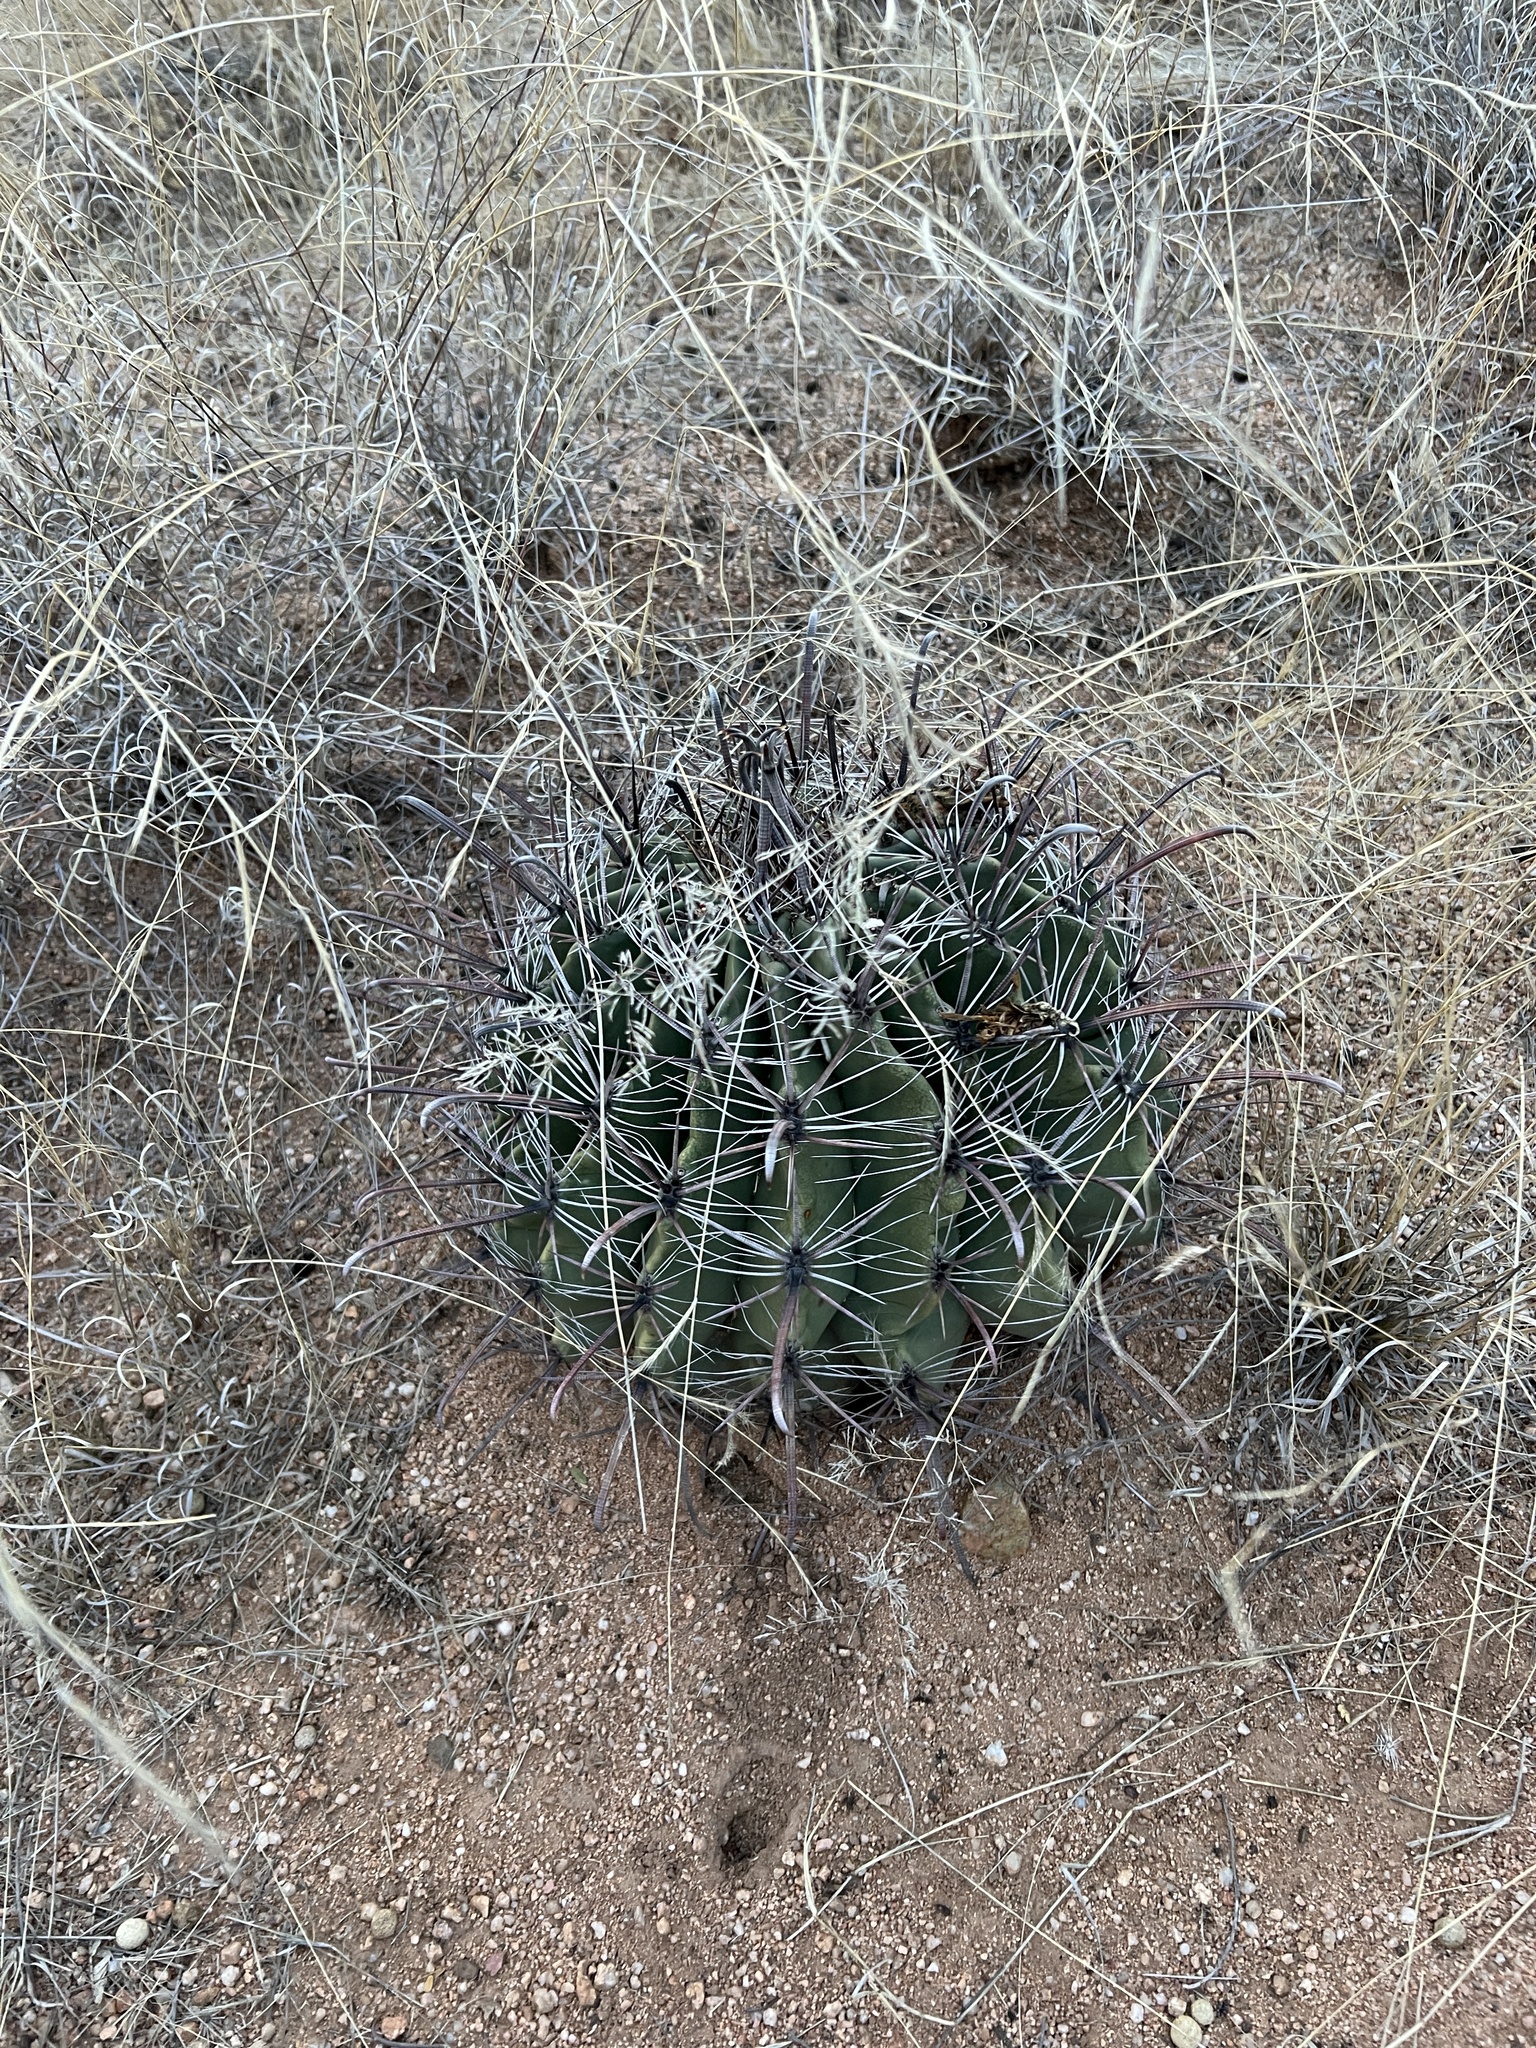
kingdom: Plantae
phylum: Tracheophyta
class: Magnoliopsida
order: Caryophyllales
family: Cactaceae
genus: Ferocactus
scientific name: Ferocactus wislizeni
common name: Candy barrel cactus
